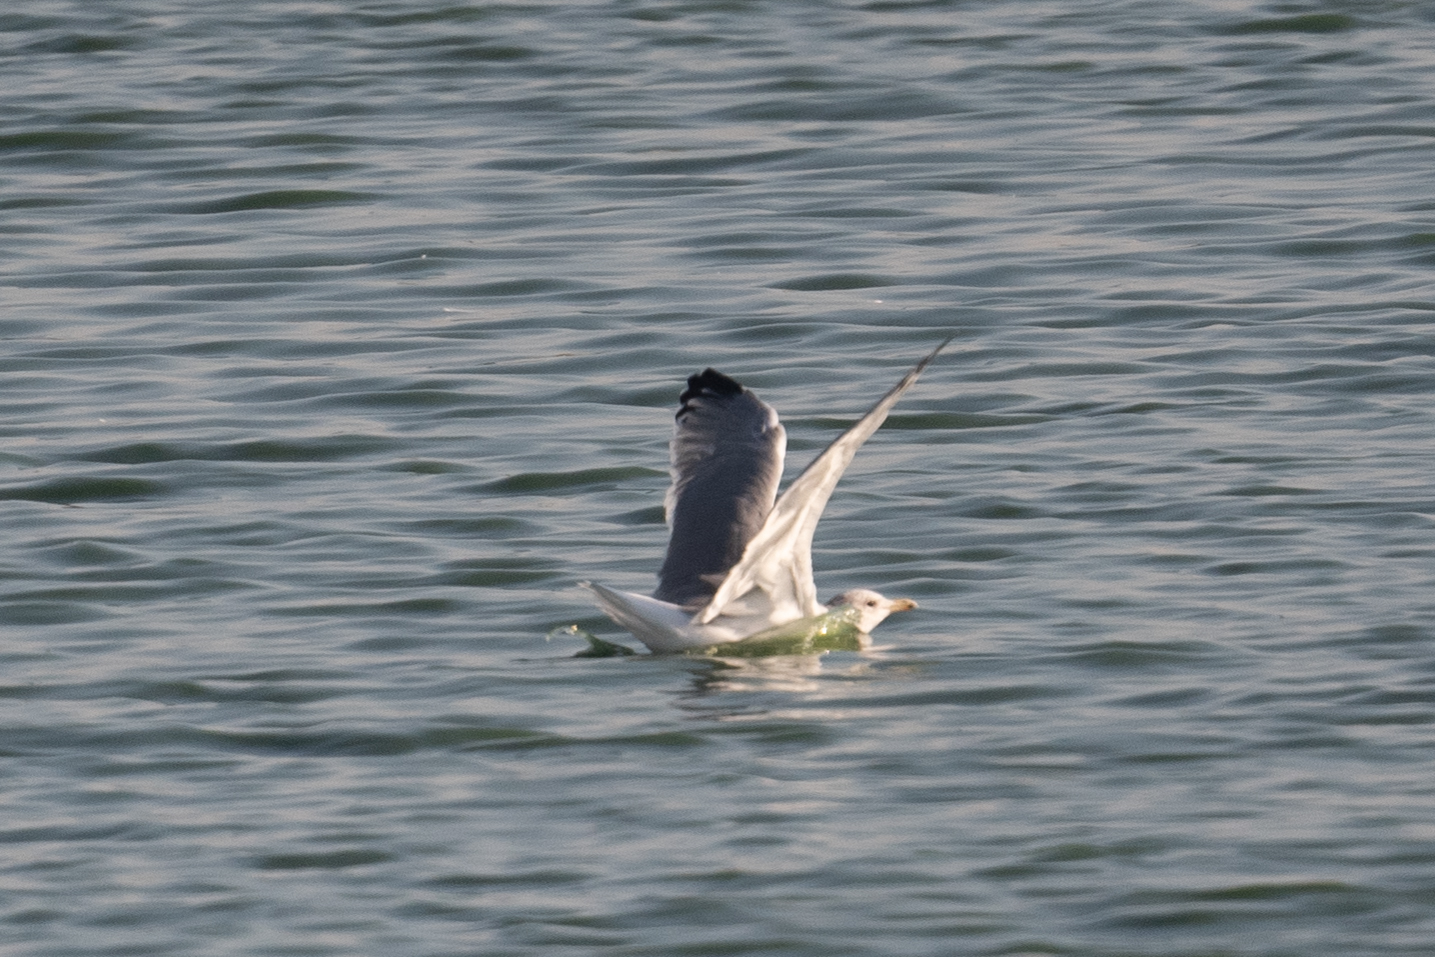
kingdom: Animalia
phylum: Chordata
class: Aves
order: Charadriiformes
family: Laridae
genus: Larus
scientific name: Larus californicus
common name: California gull
